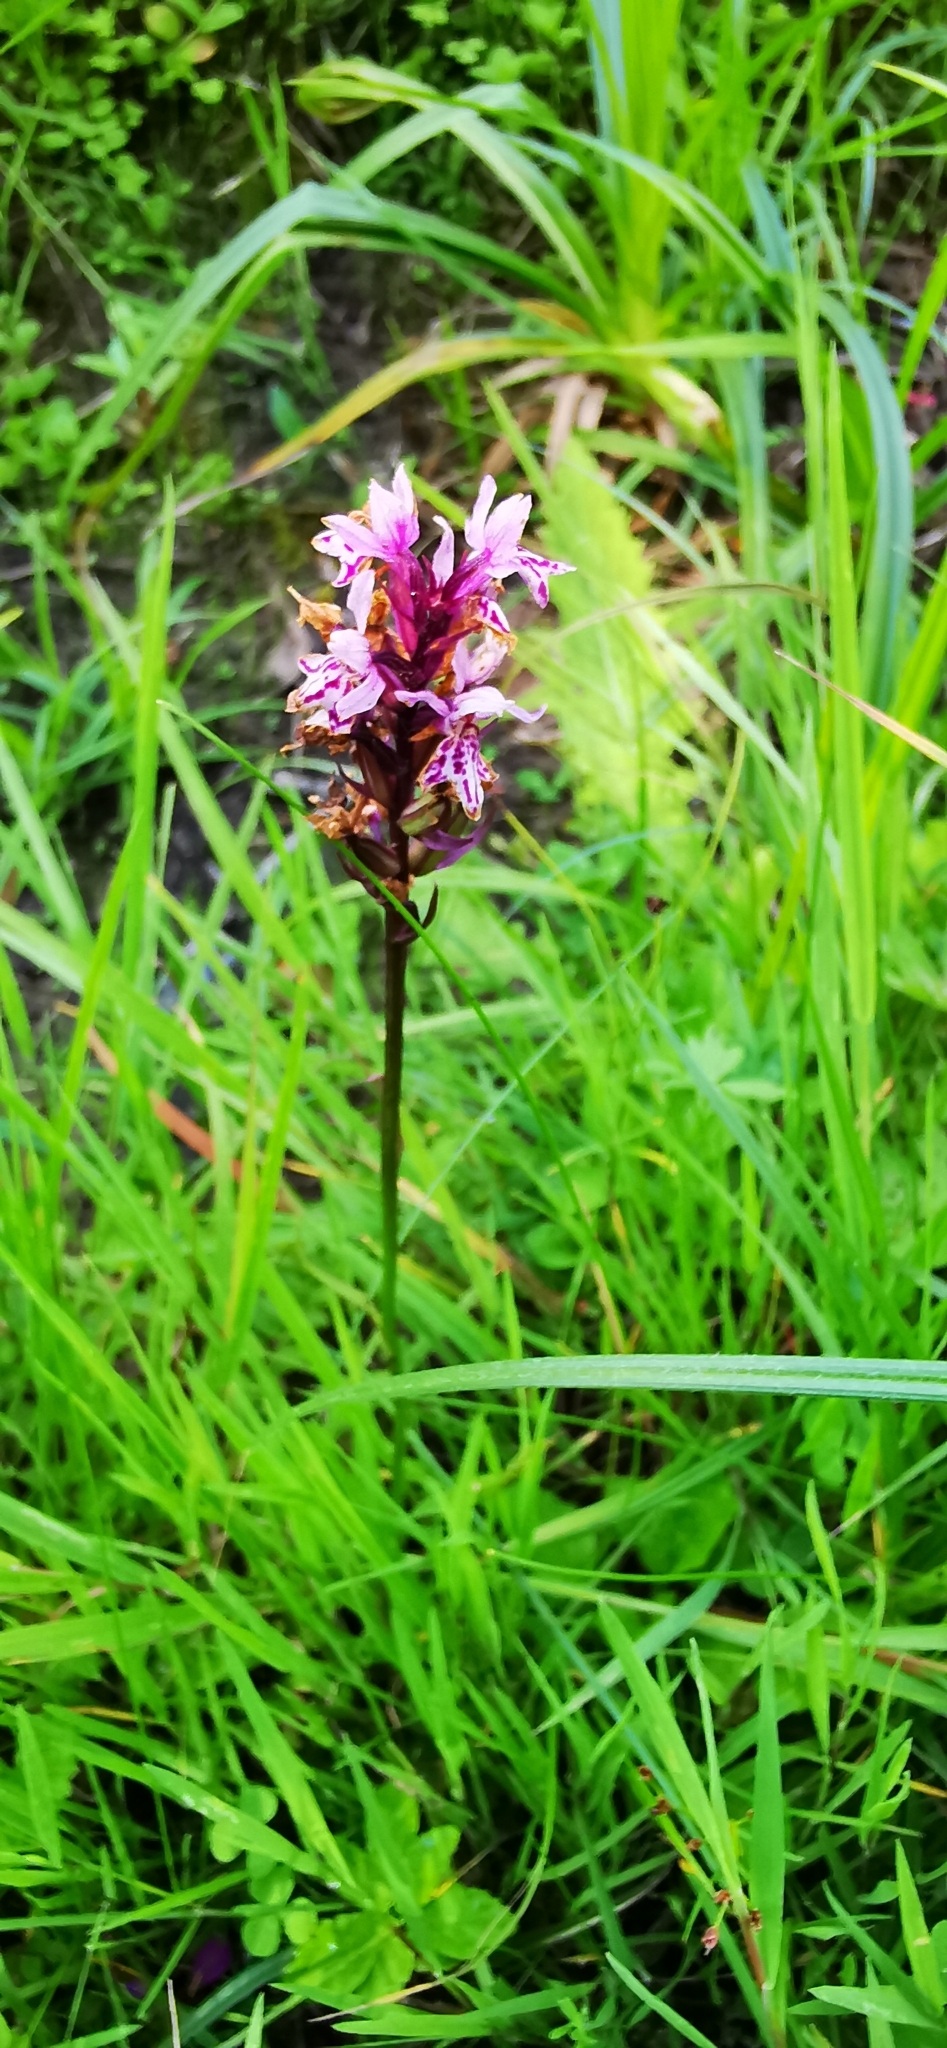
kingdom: Plantae
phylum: Tracheophyta
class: Liliopsida
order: Asparagales
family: Orchidaceae
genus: Dactylorhiza
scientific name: Dactylorhiza maculata
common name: Heath spotted-orchid
